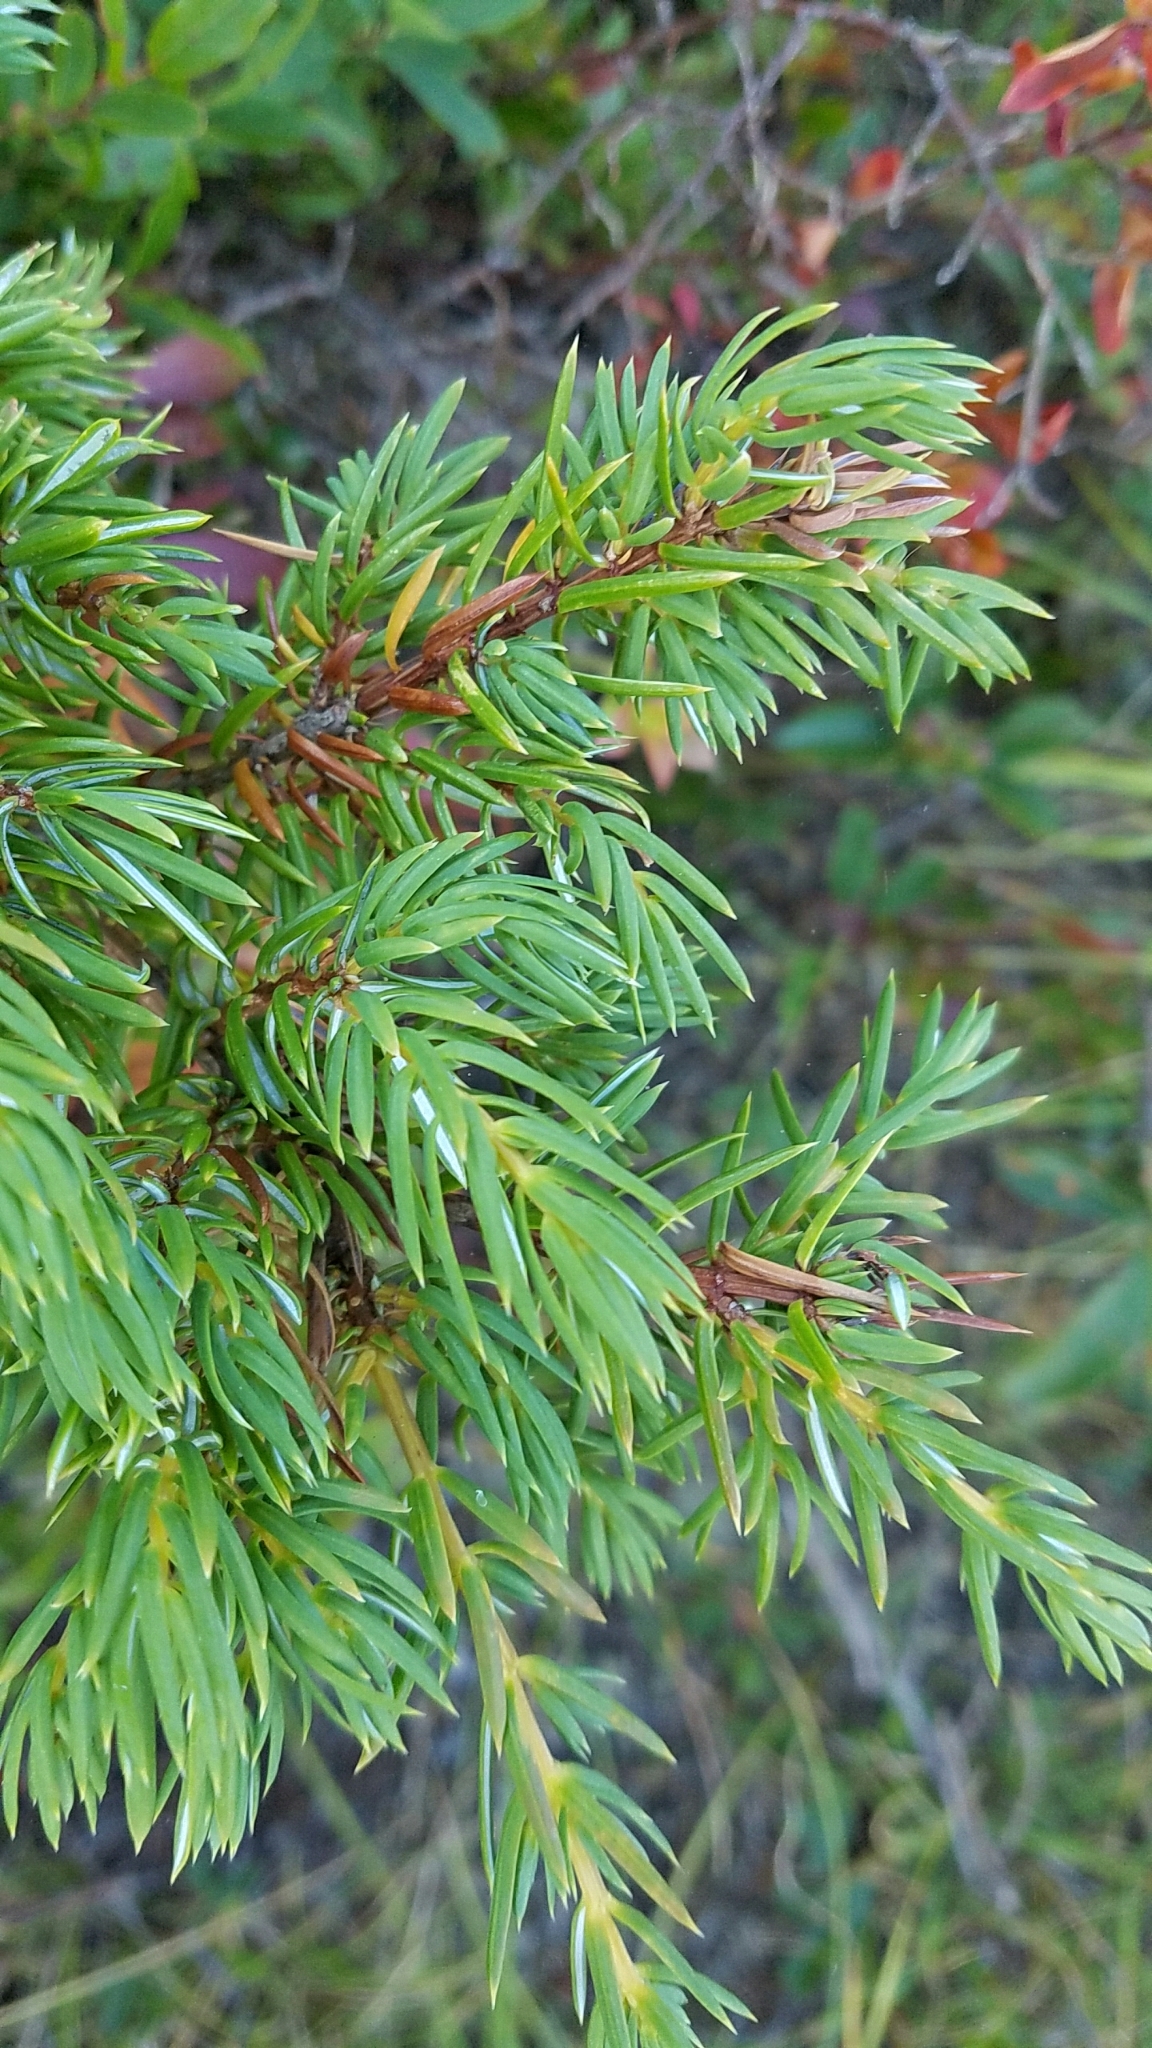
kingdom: Plantae
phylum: Tracheophyta
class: Pinopsida
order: Pinales
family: Cupressaceae
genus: Juniperus
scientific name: Juniperus communis
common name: Common juniper
